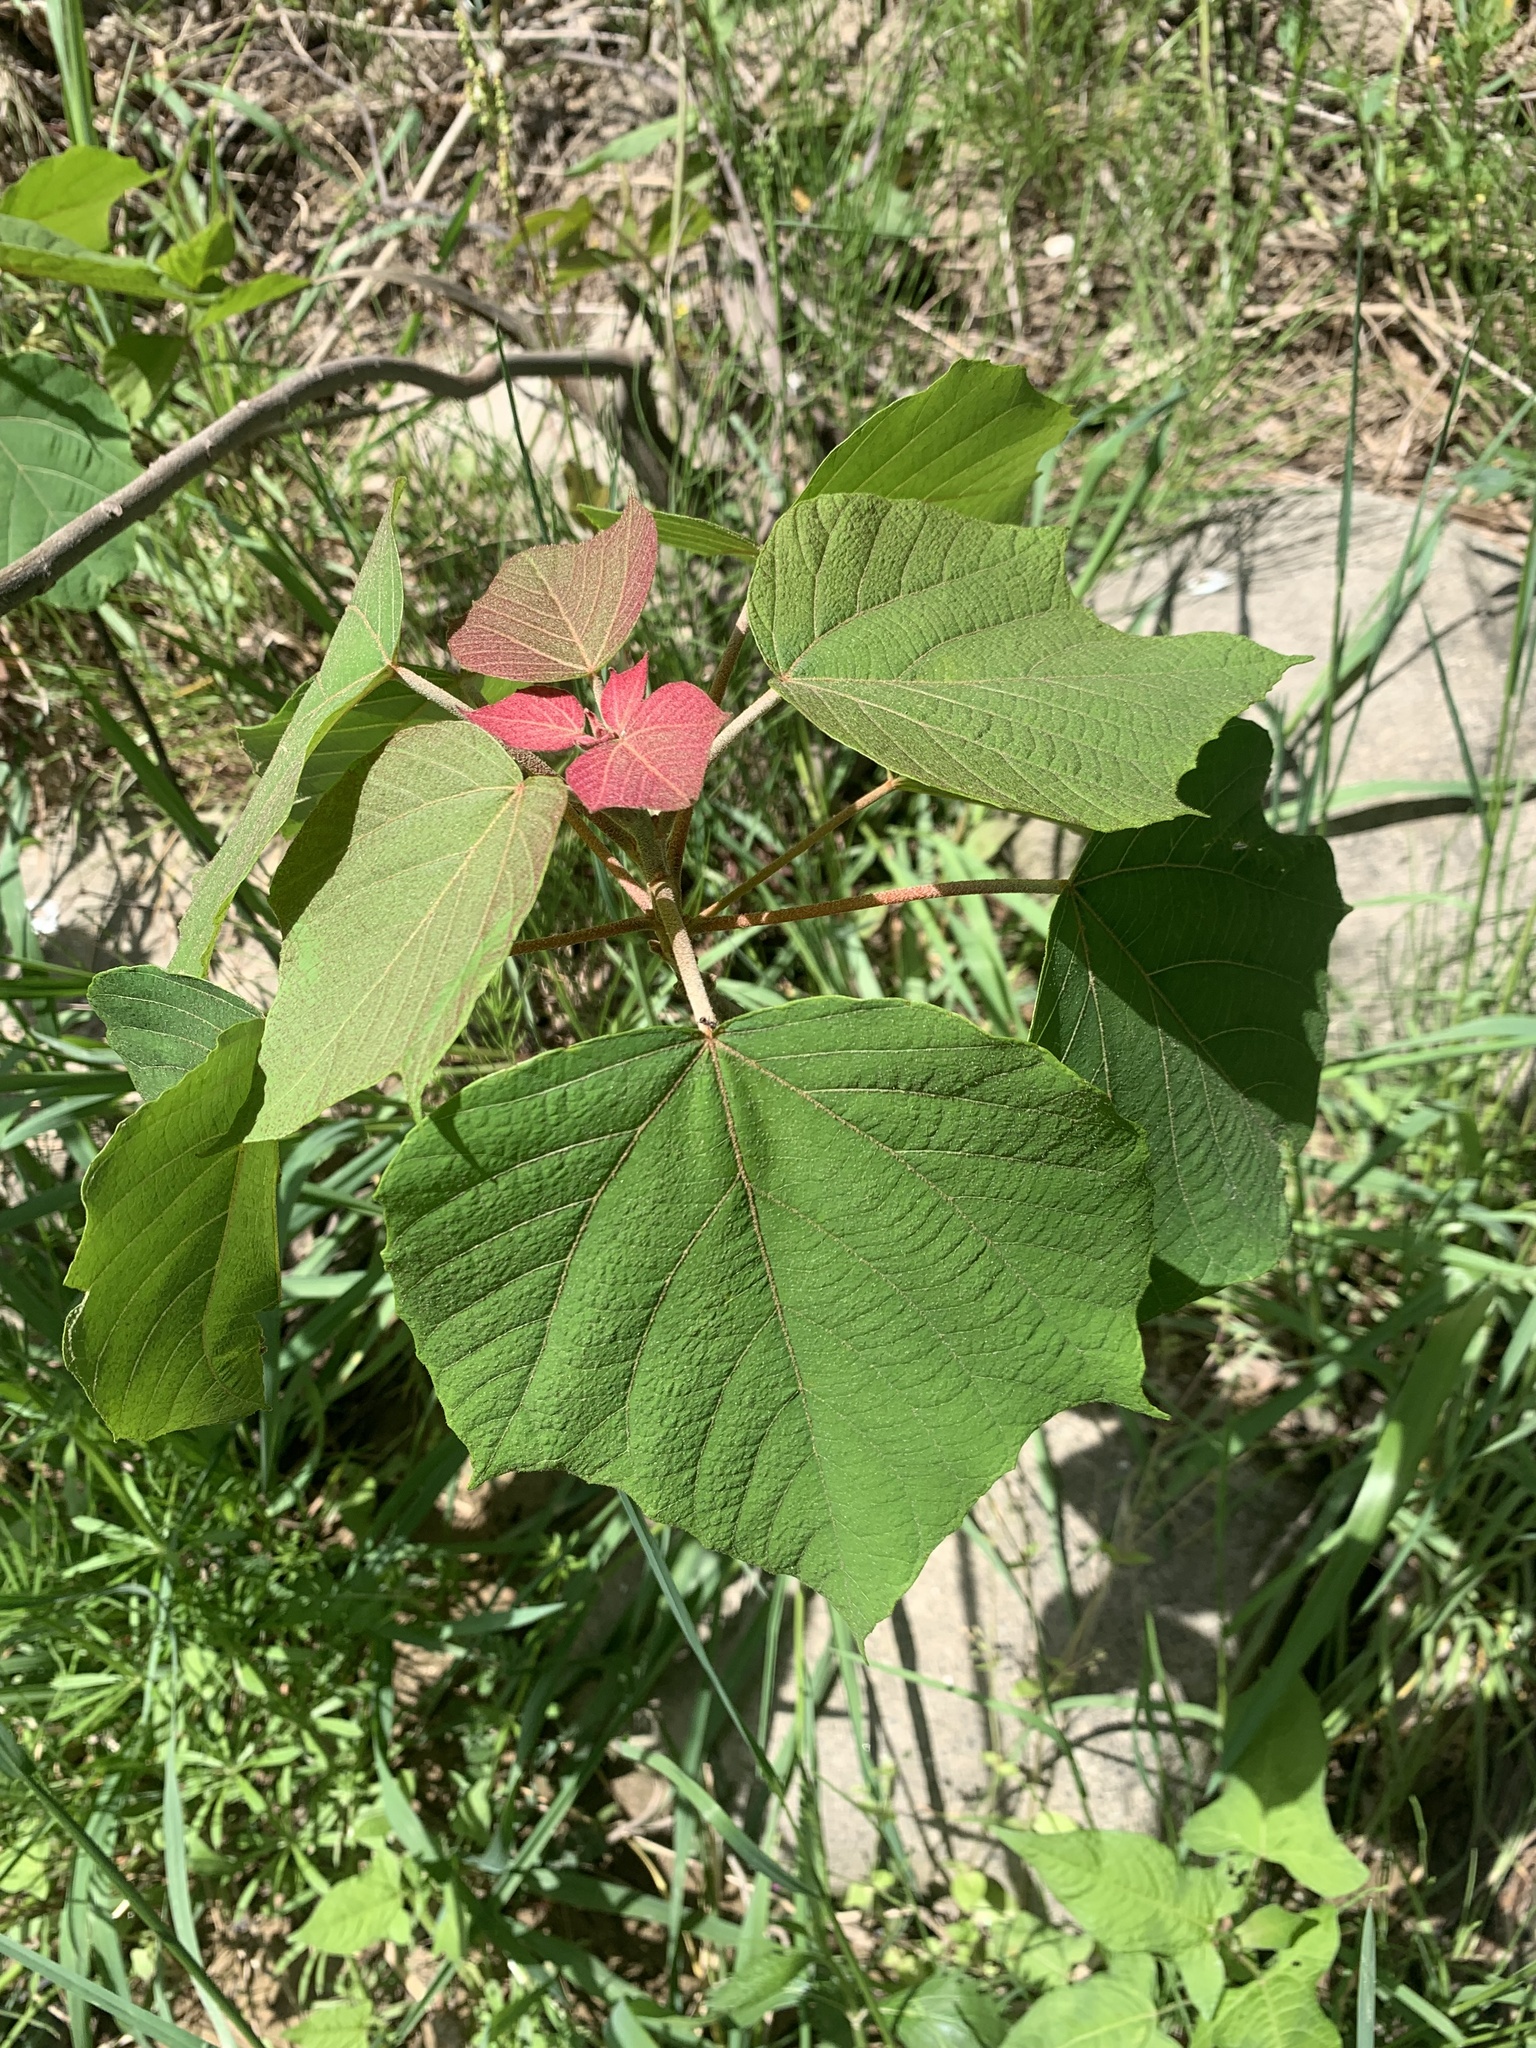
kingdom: Plantae
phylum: Tracheophyta
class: Magnoliopsida
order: Malpighiales
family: Euphorbiaceae
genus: Mallotus
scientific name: Mallotus japonicus
